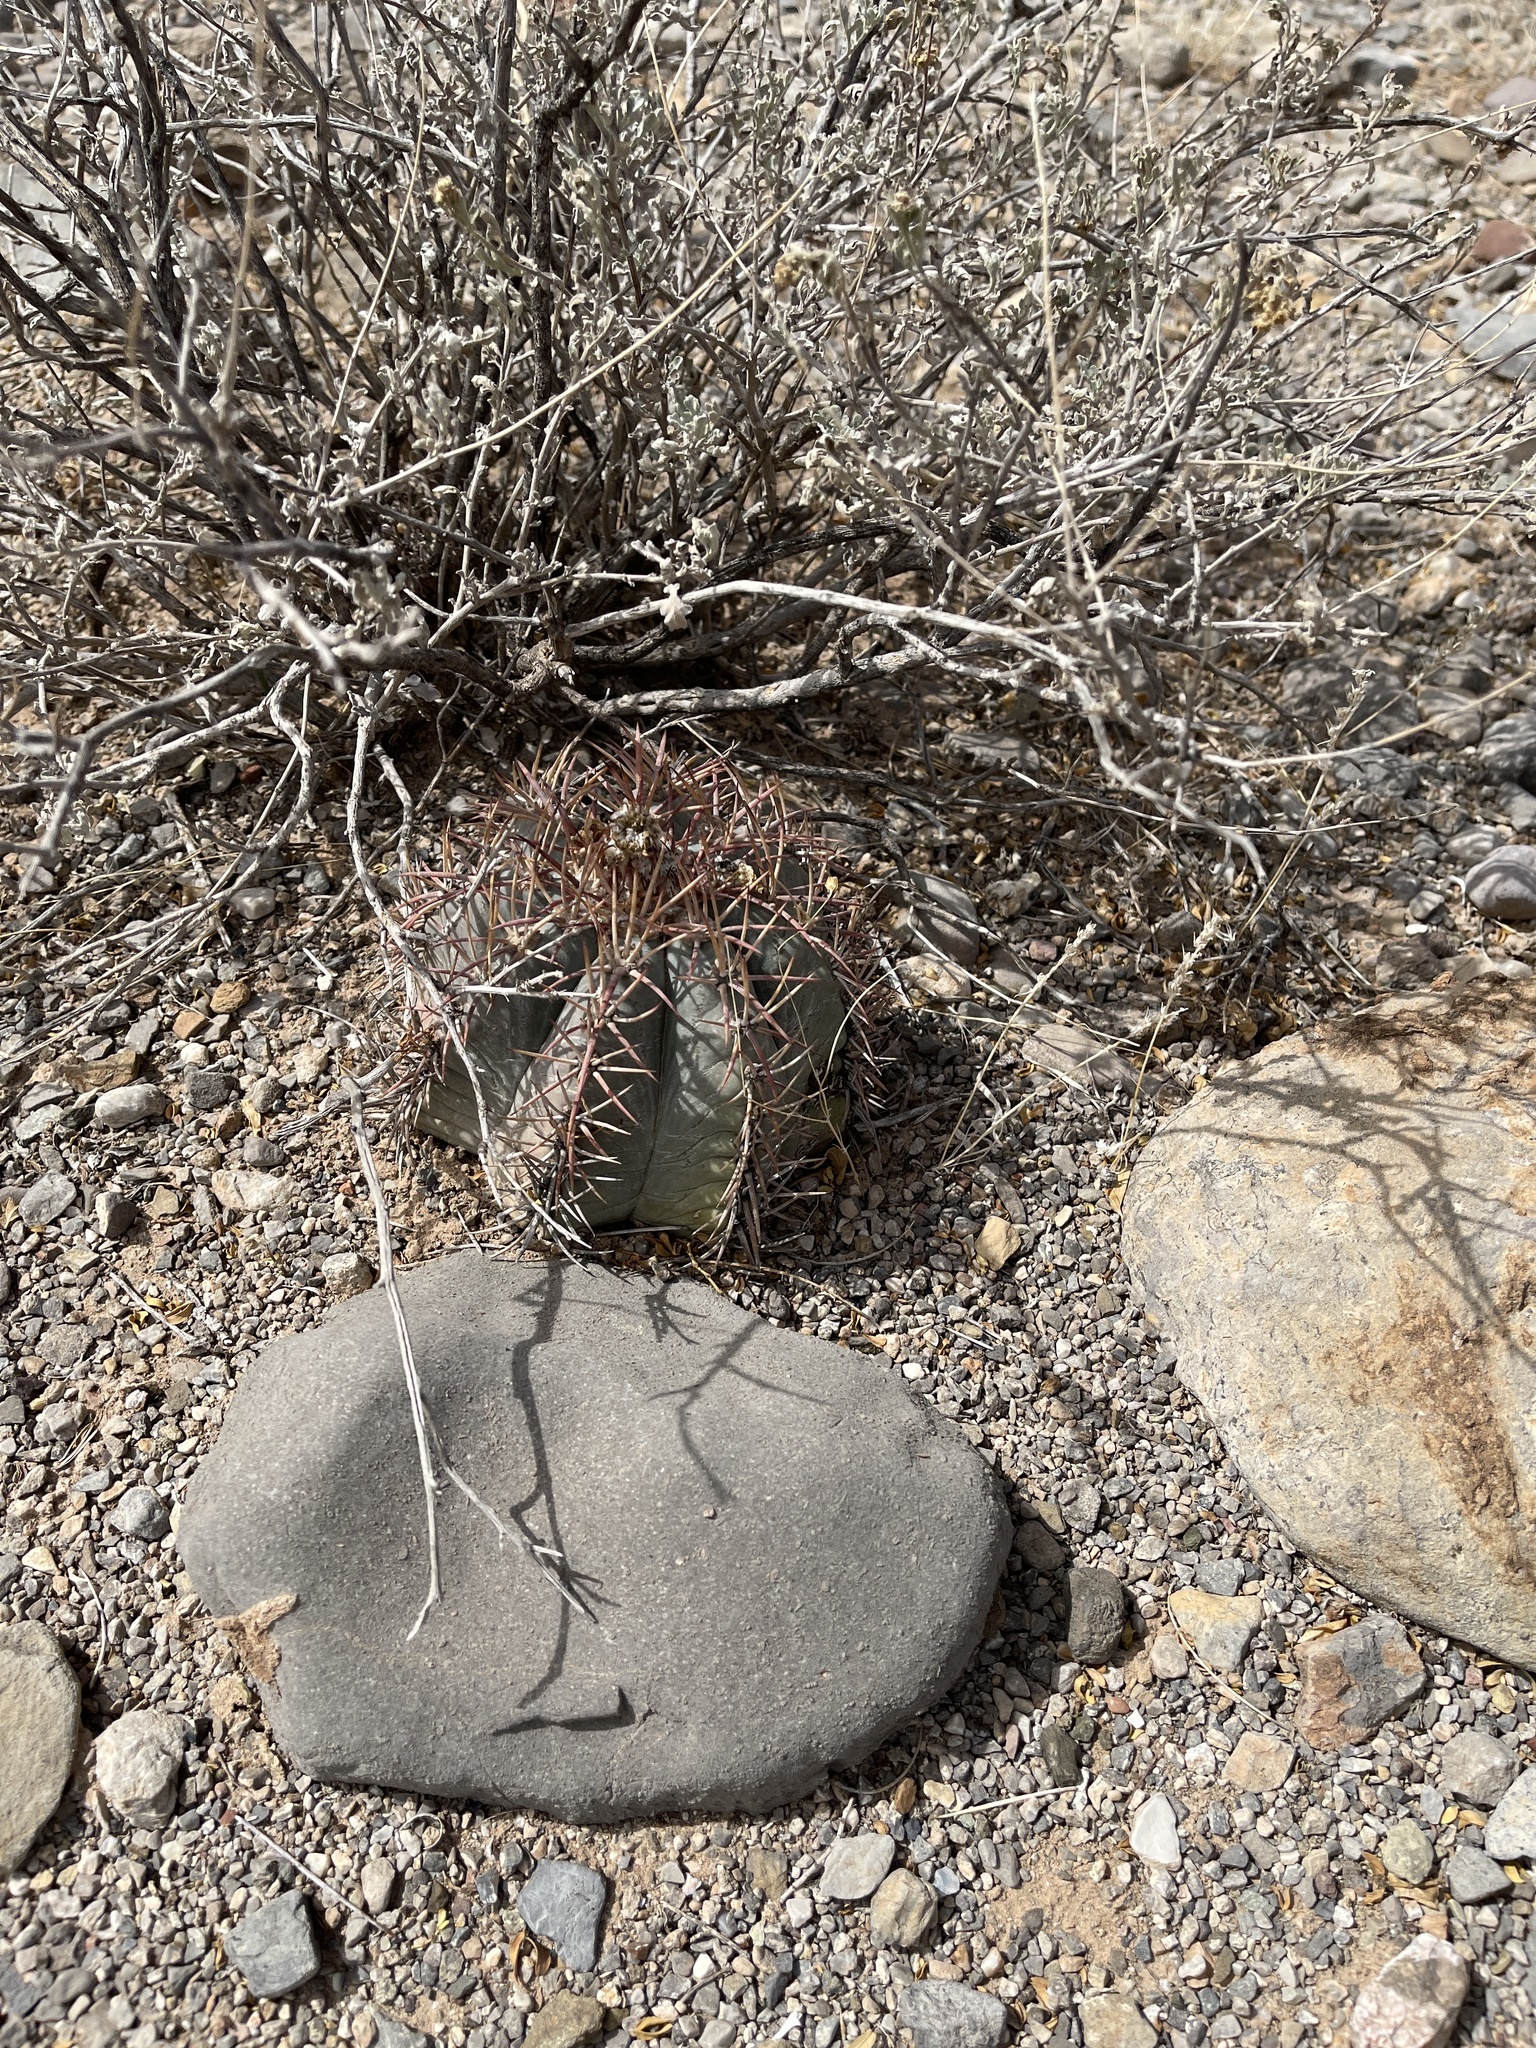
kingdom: Plantae
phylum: Tracheophyta
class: Magnoliopsida
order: Caryophyllales
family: Cactaceae
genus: Echinocactus
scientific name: Echinocactus horizonthalonius
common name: Devilshead
